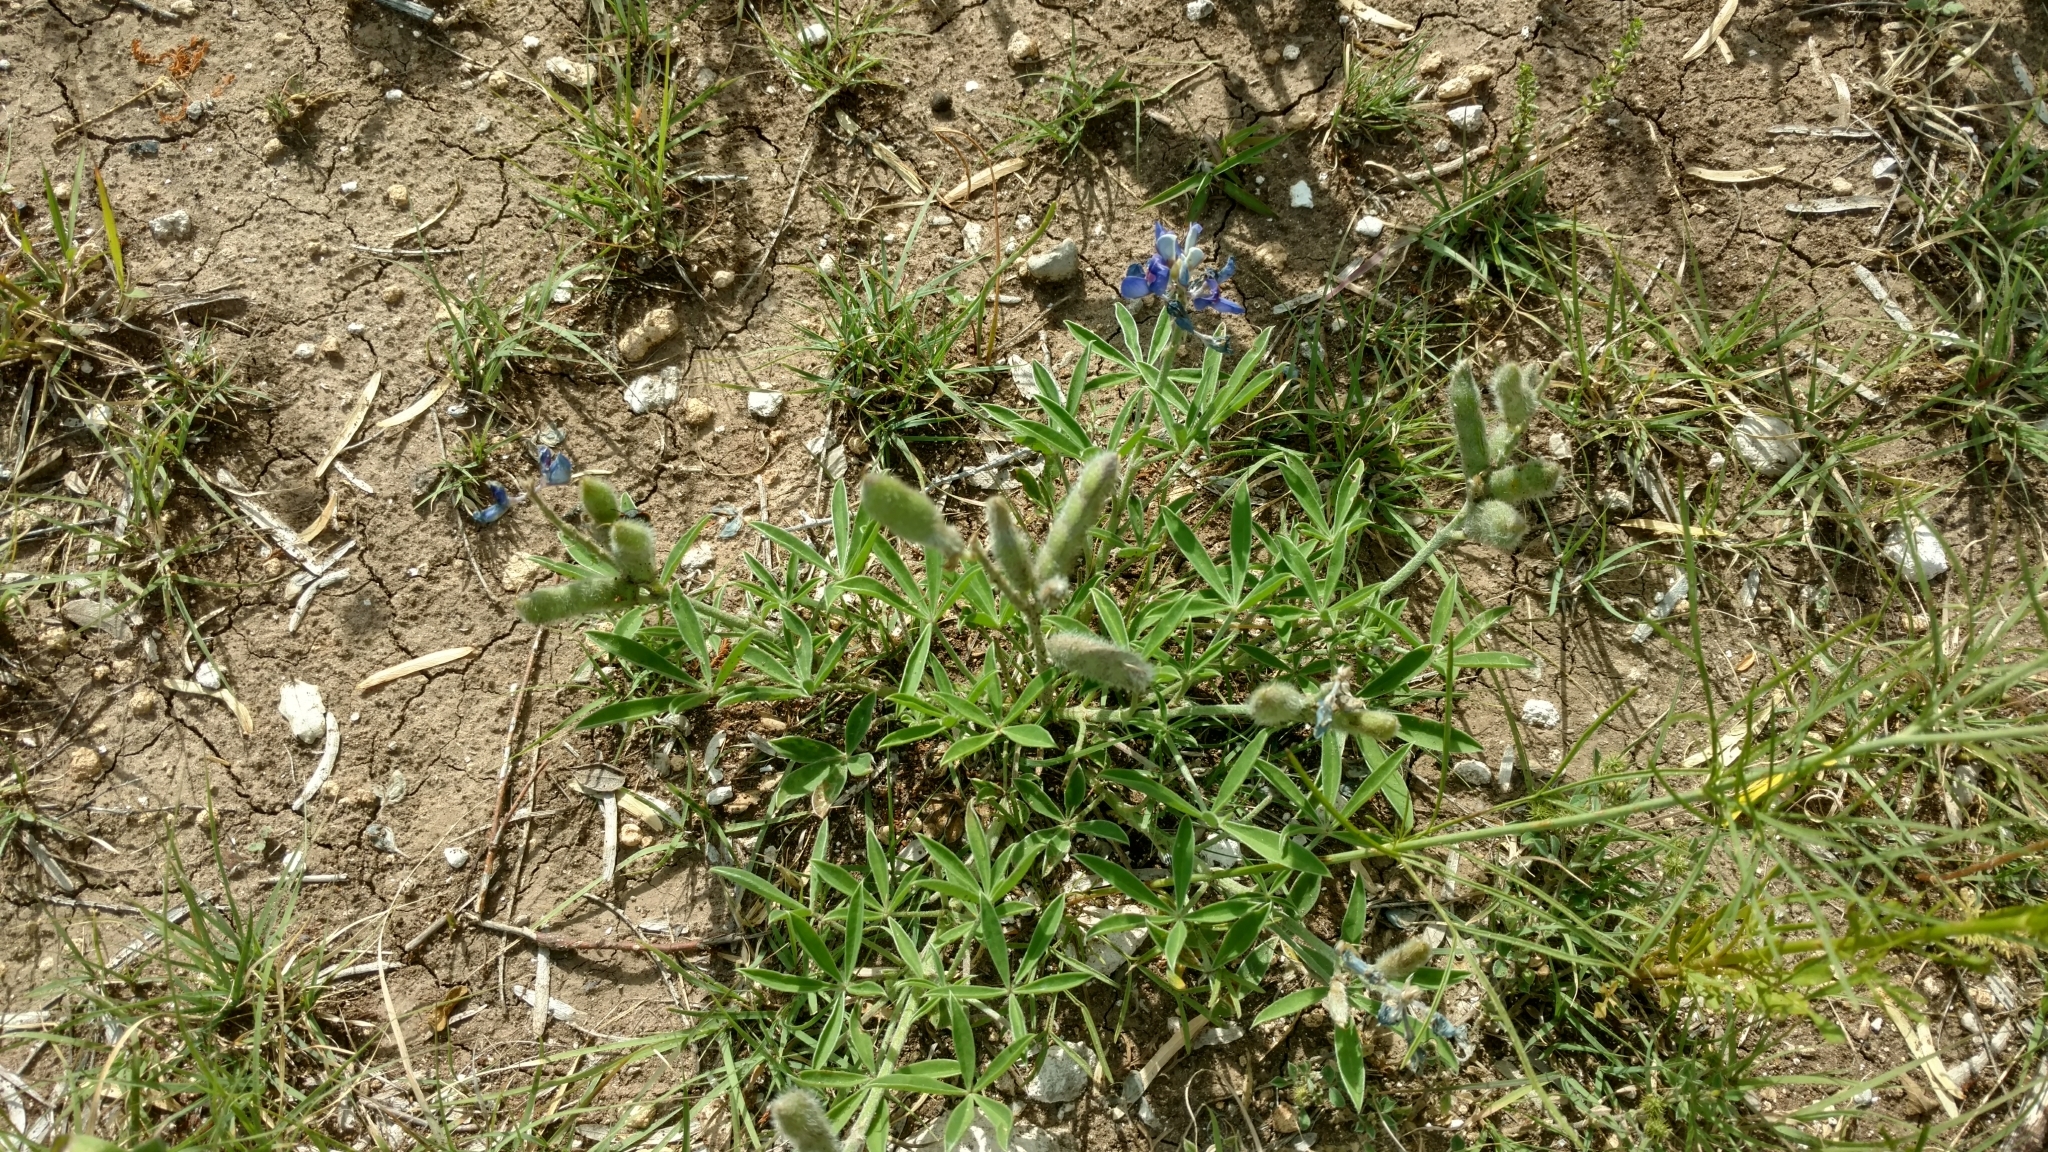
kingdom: Plantae
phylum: Tracheophyta
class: Magnoliopsida
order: Fabales
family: Fabaceae
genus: Lupinus
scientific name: Lupinus texensis
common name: Texas bluebonnet
